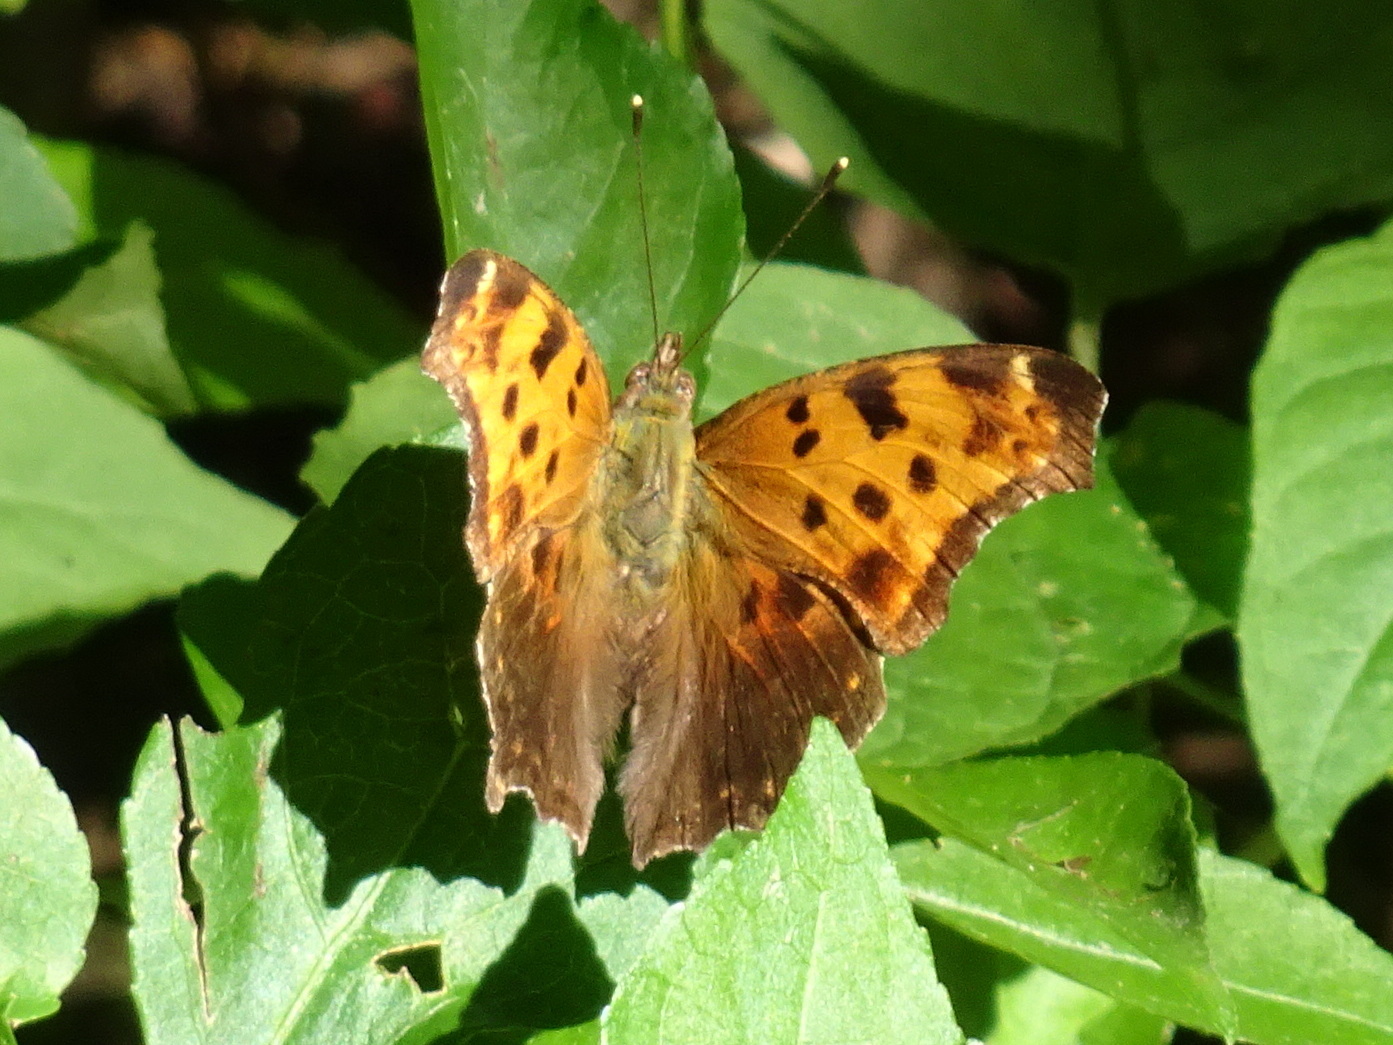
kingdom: Animalia
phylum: Arthropoda
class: Insecta
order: Lepidoptera
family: Nymphalidae
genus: Polygonia
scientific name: Polygonia comma
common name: Eastern comma
